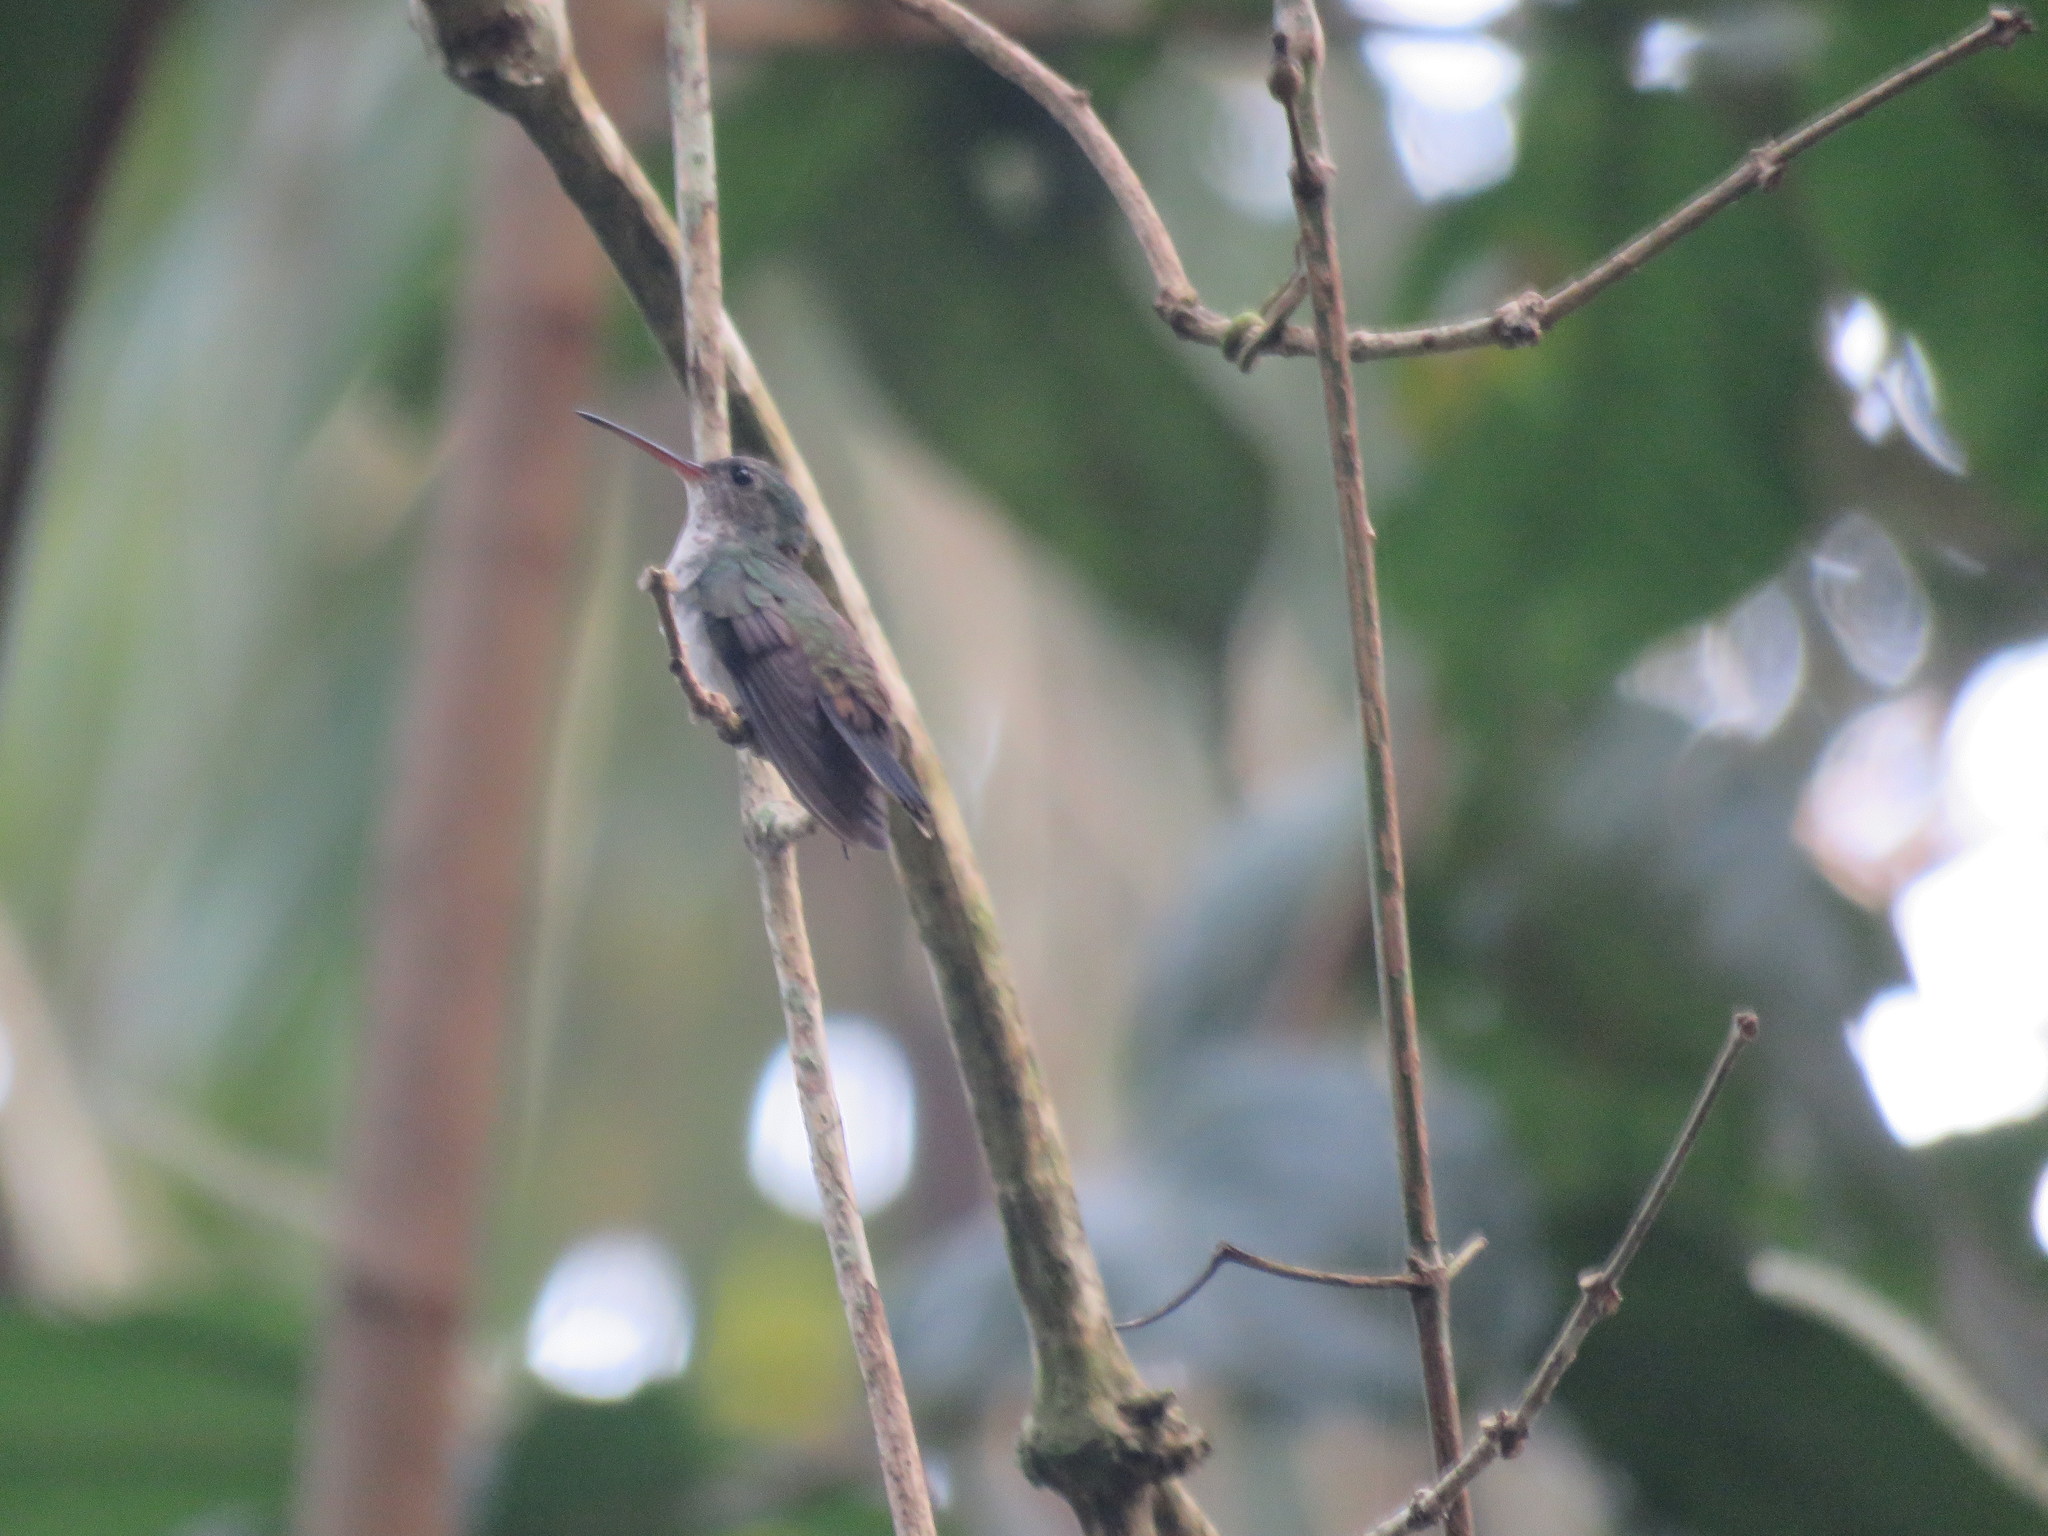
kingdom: Animalia
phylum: Chordata
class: Aves
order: Apodiformes
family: Trochilidae
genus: Chlorestes
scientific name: Chlorestes cyanus
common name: White-chinned sapphire
